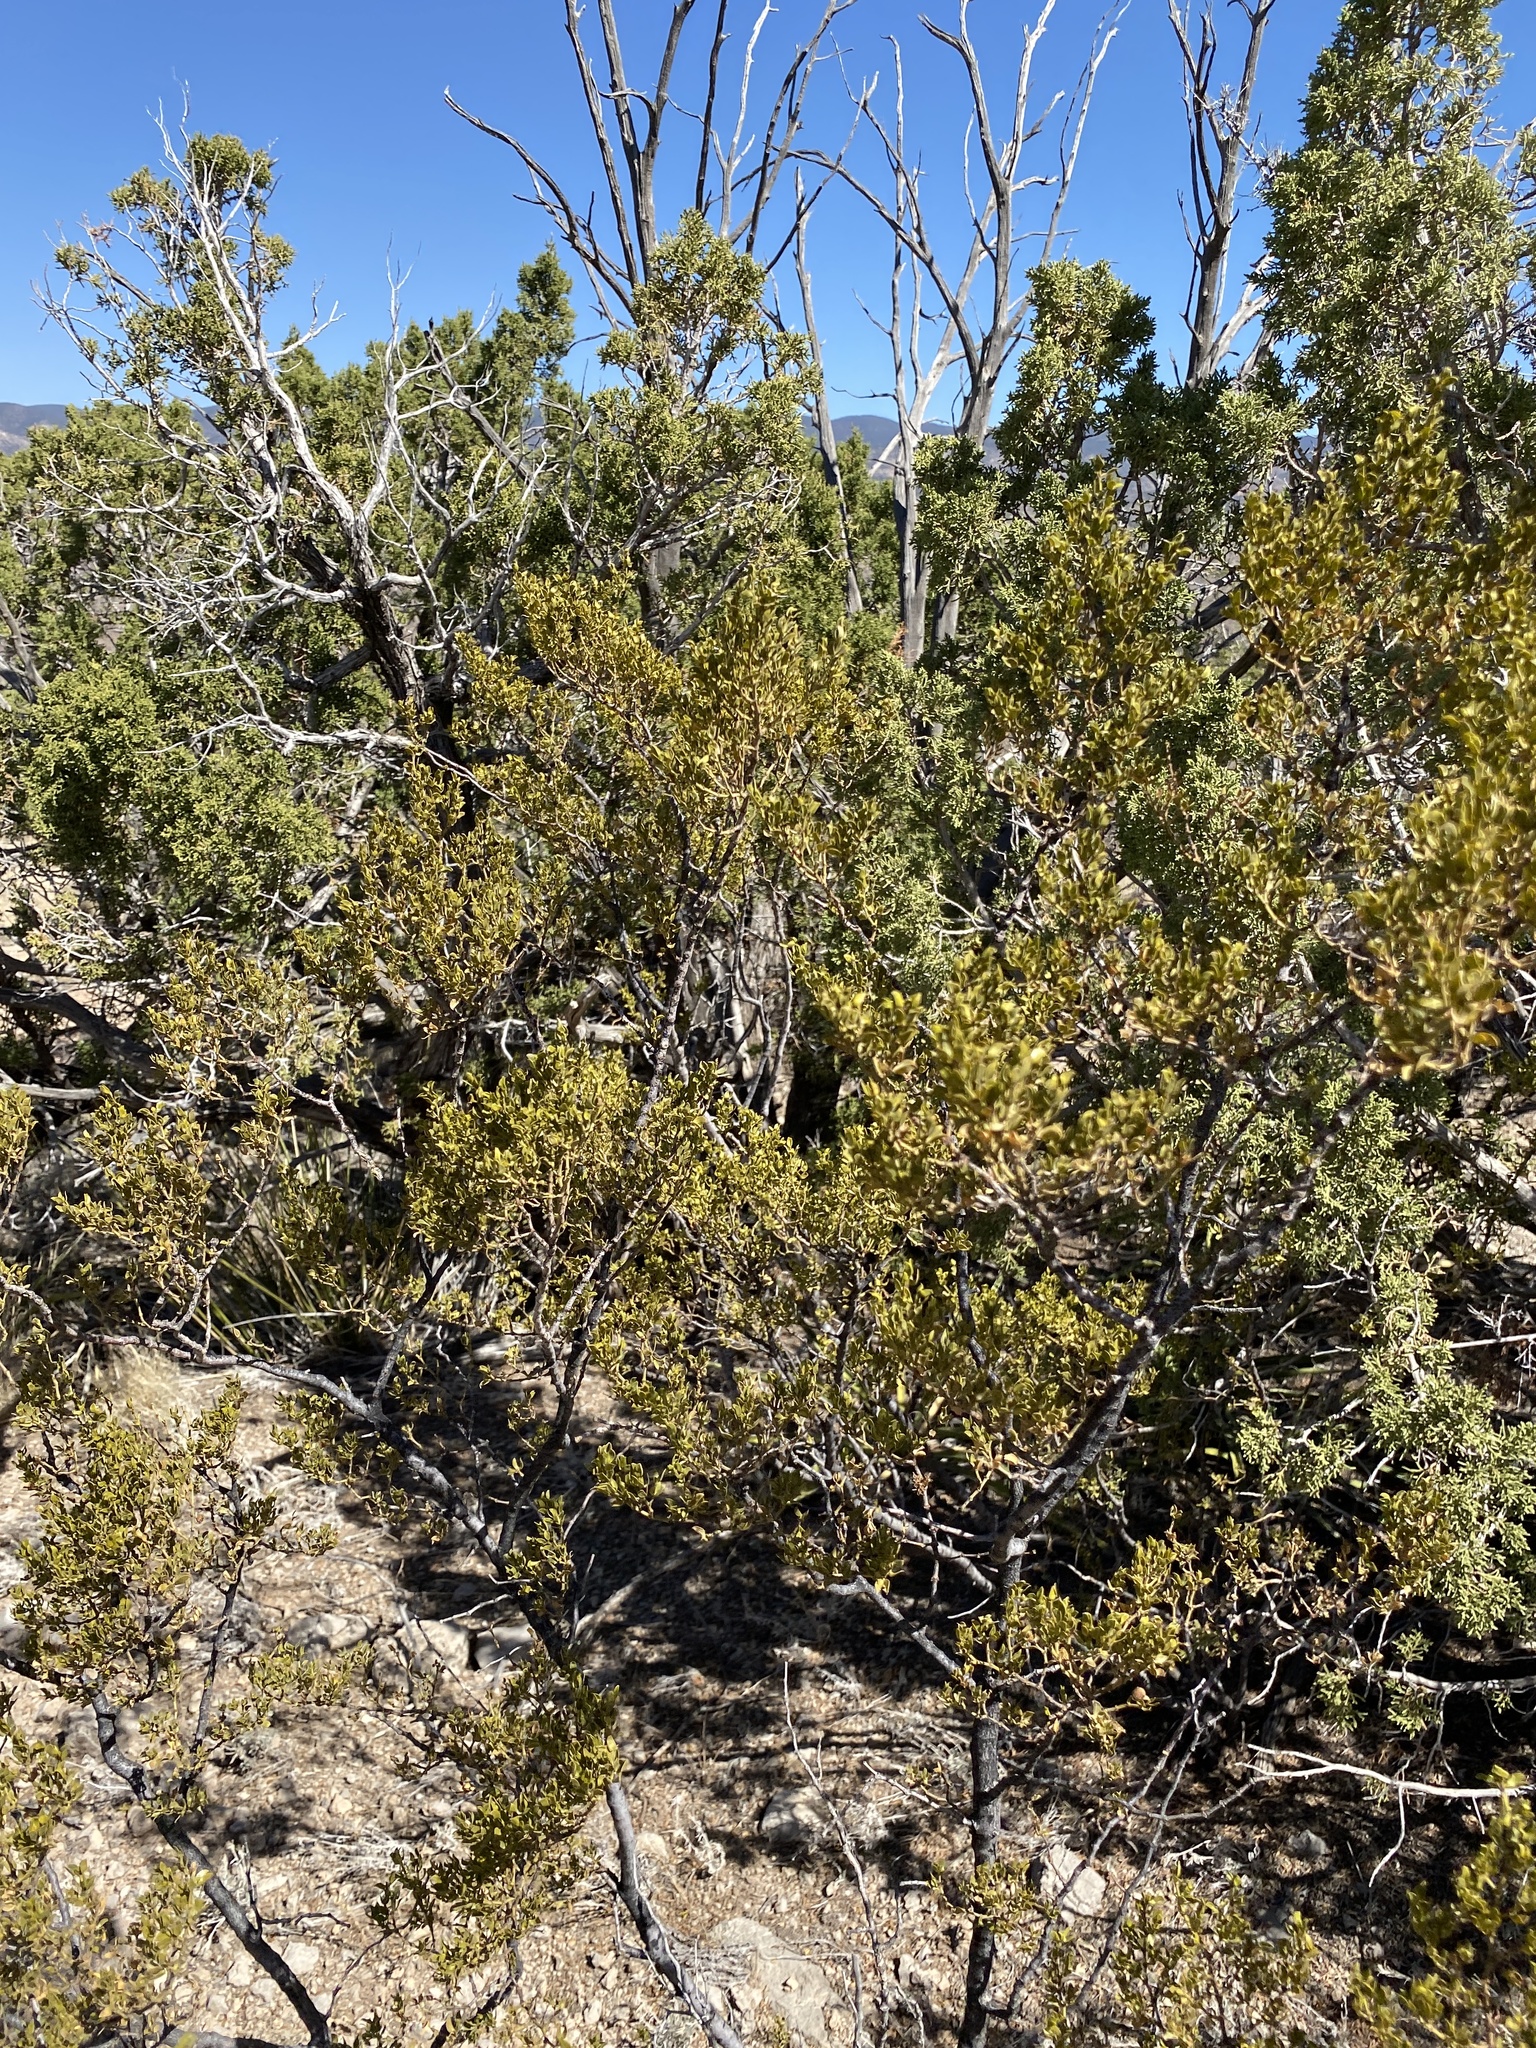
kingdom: Plantae
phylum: Tracheophyta
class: Magnoliopsida
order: Zygophyllales
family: Zygophyllaceae
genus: Larrea
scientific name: Larrea tridentata
